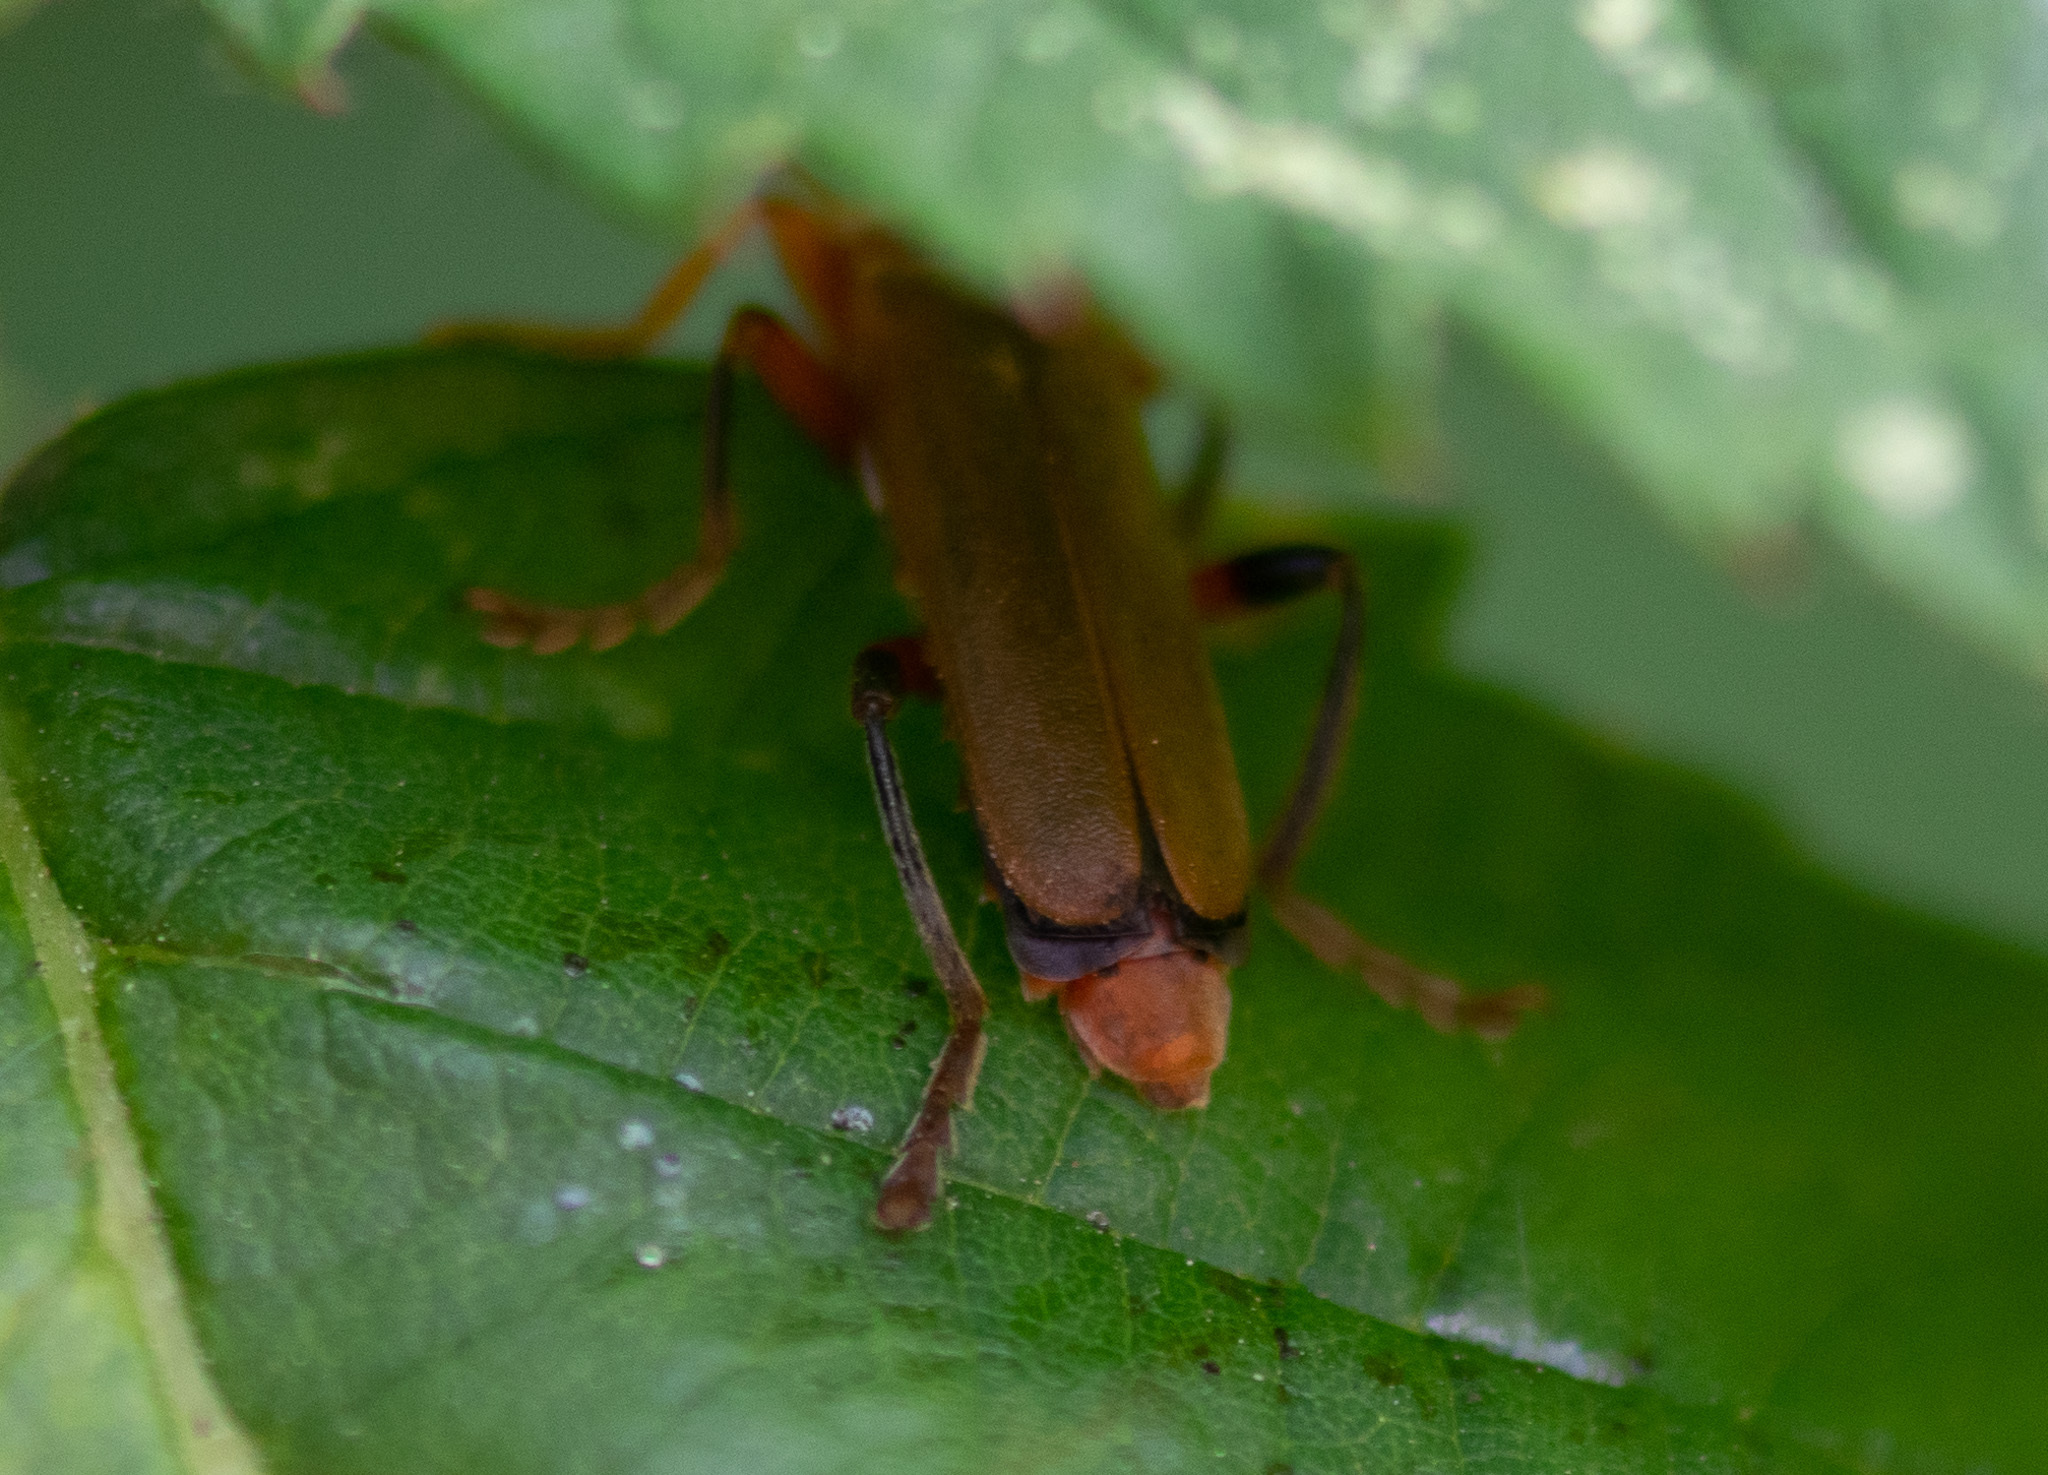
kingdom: Animalia
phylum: Arthropoda
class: Insecta
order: Coleoptera
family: Cantharidae
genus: Cantharis
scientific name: Cantharis livida
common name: Livid soldier beetle
